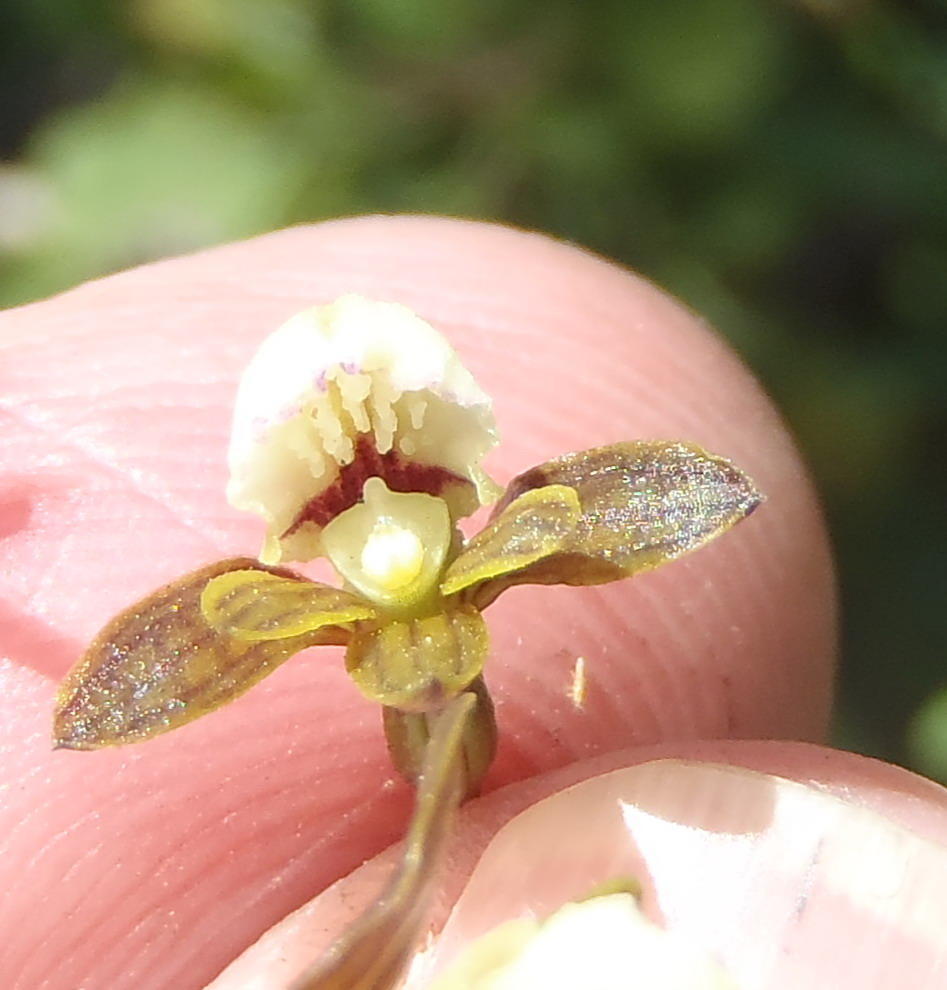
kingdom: Plantae
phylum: Tracheophyta
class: Liliopsida
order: Asparagales
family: Orchidaceae
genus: Eulophia
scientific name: Eulophia cochlearis
